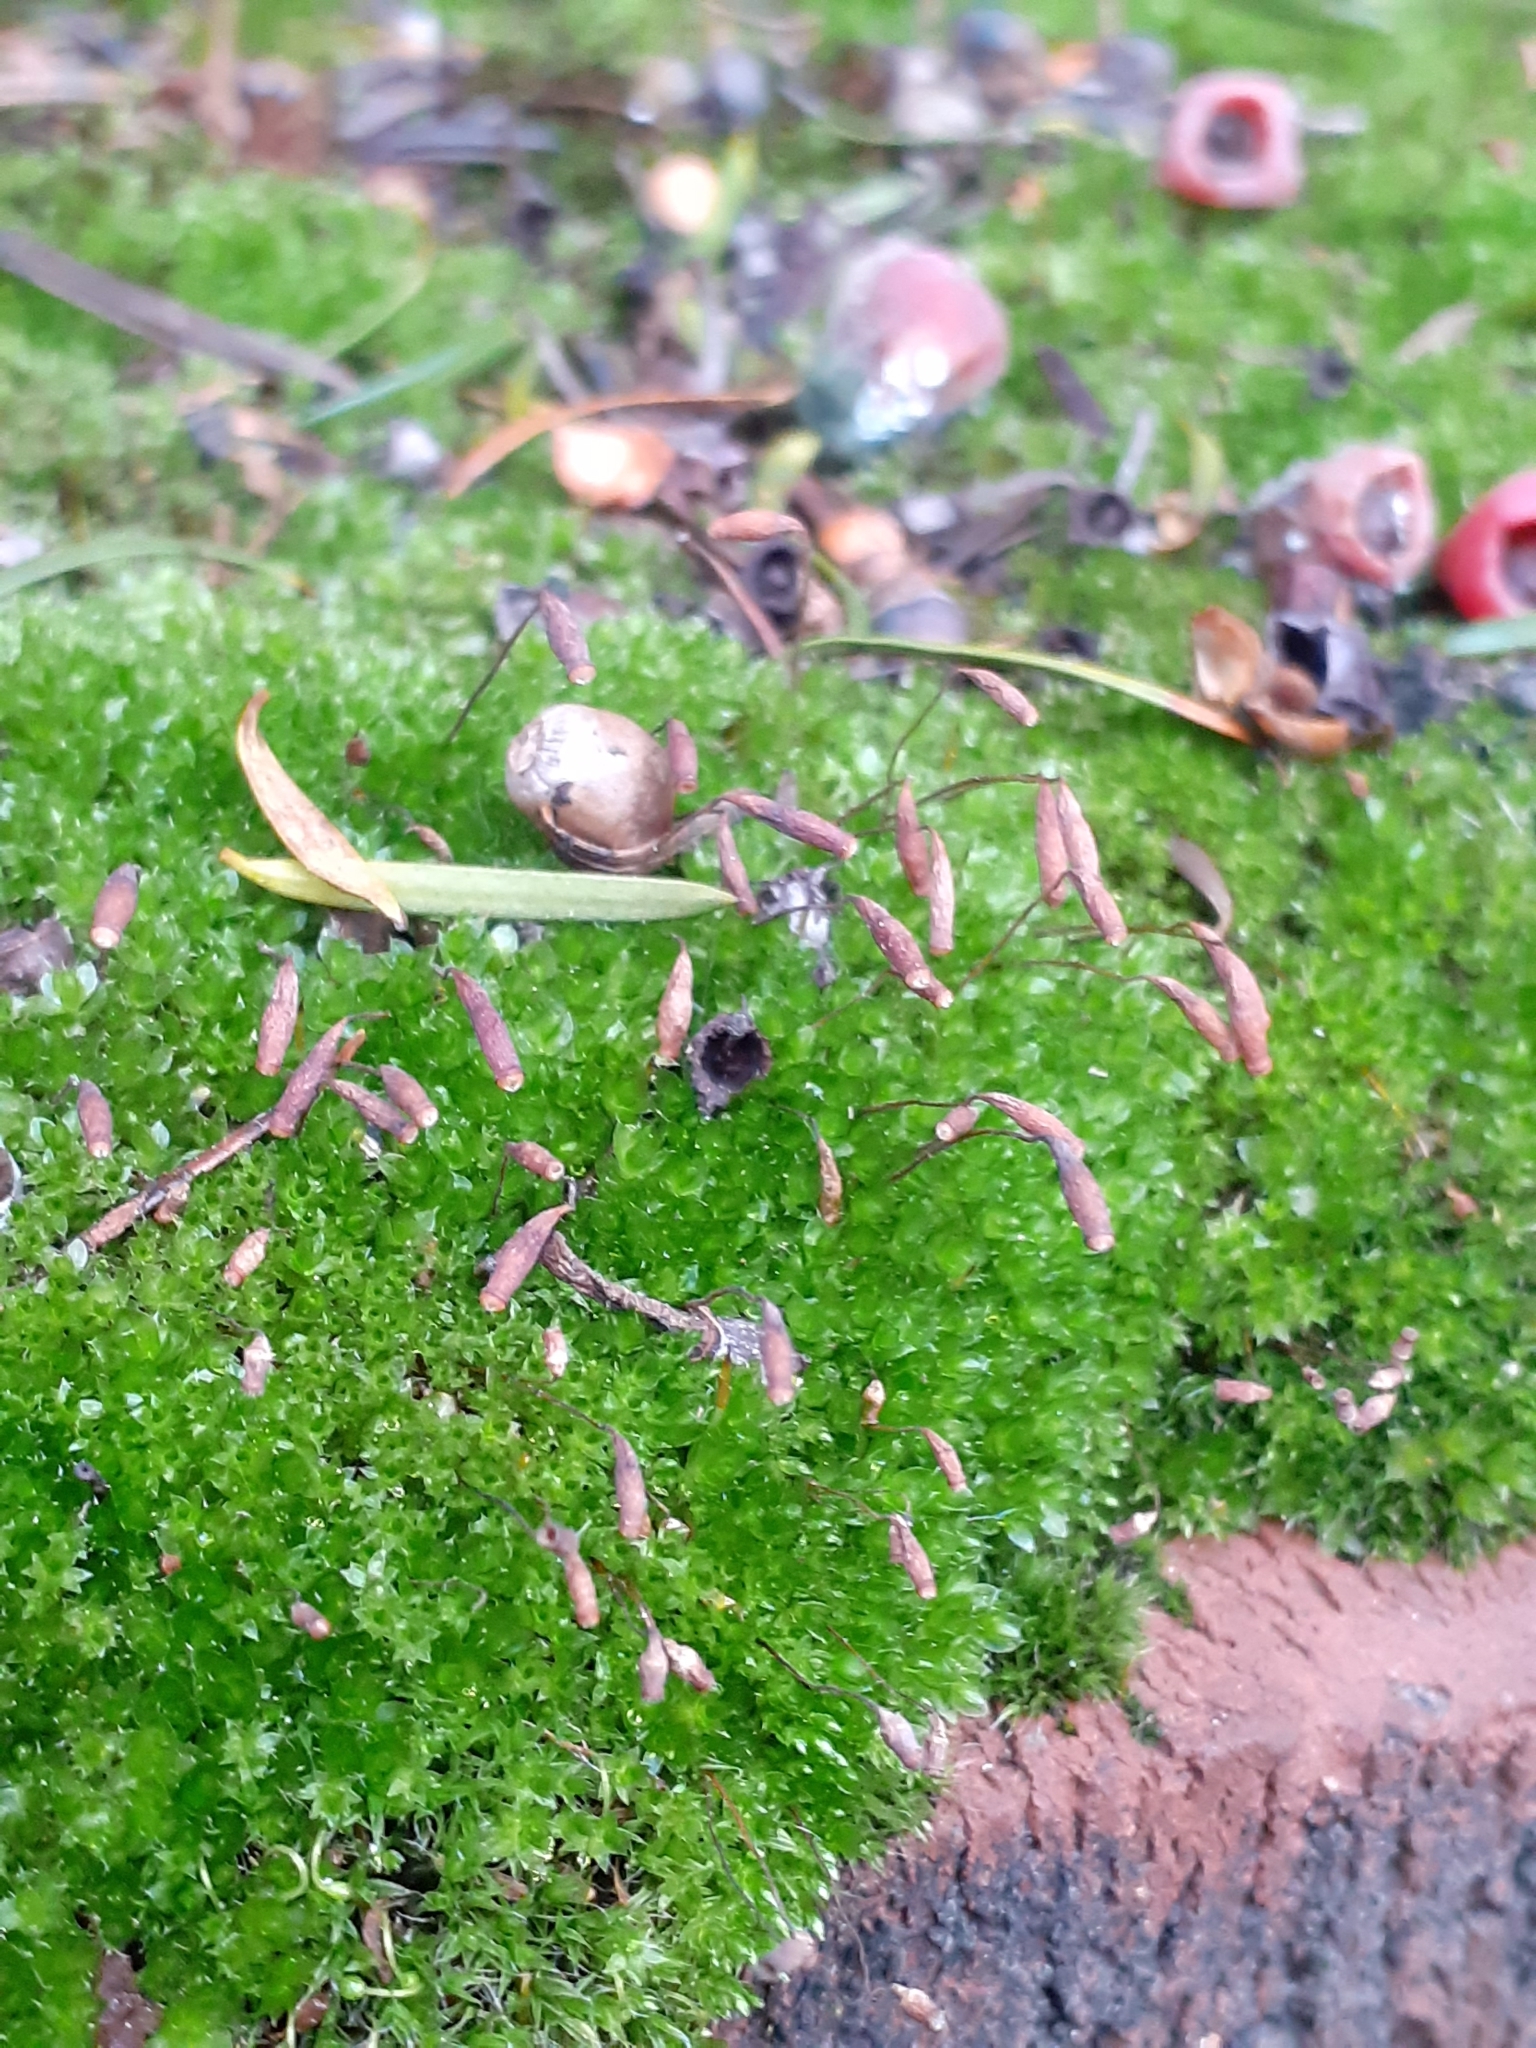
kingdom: Plantae
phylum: Bryophyta
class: Bryopsida
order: Bryales
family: Bryaceae
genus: Rosulabryum
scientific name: Rosulabryum capillare
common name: Capillary thread-moss
